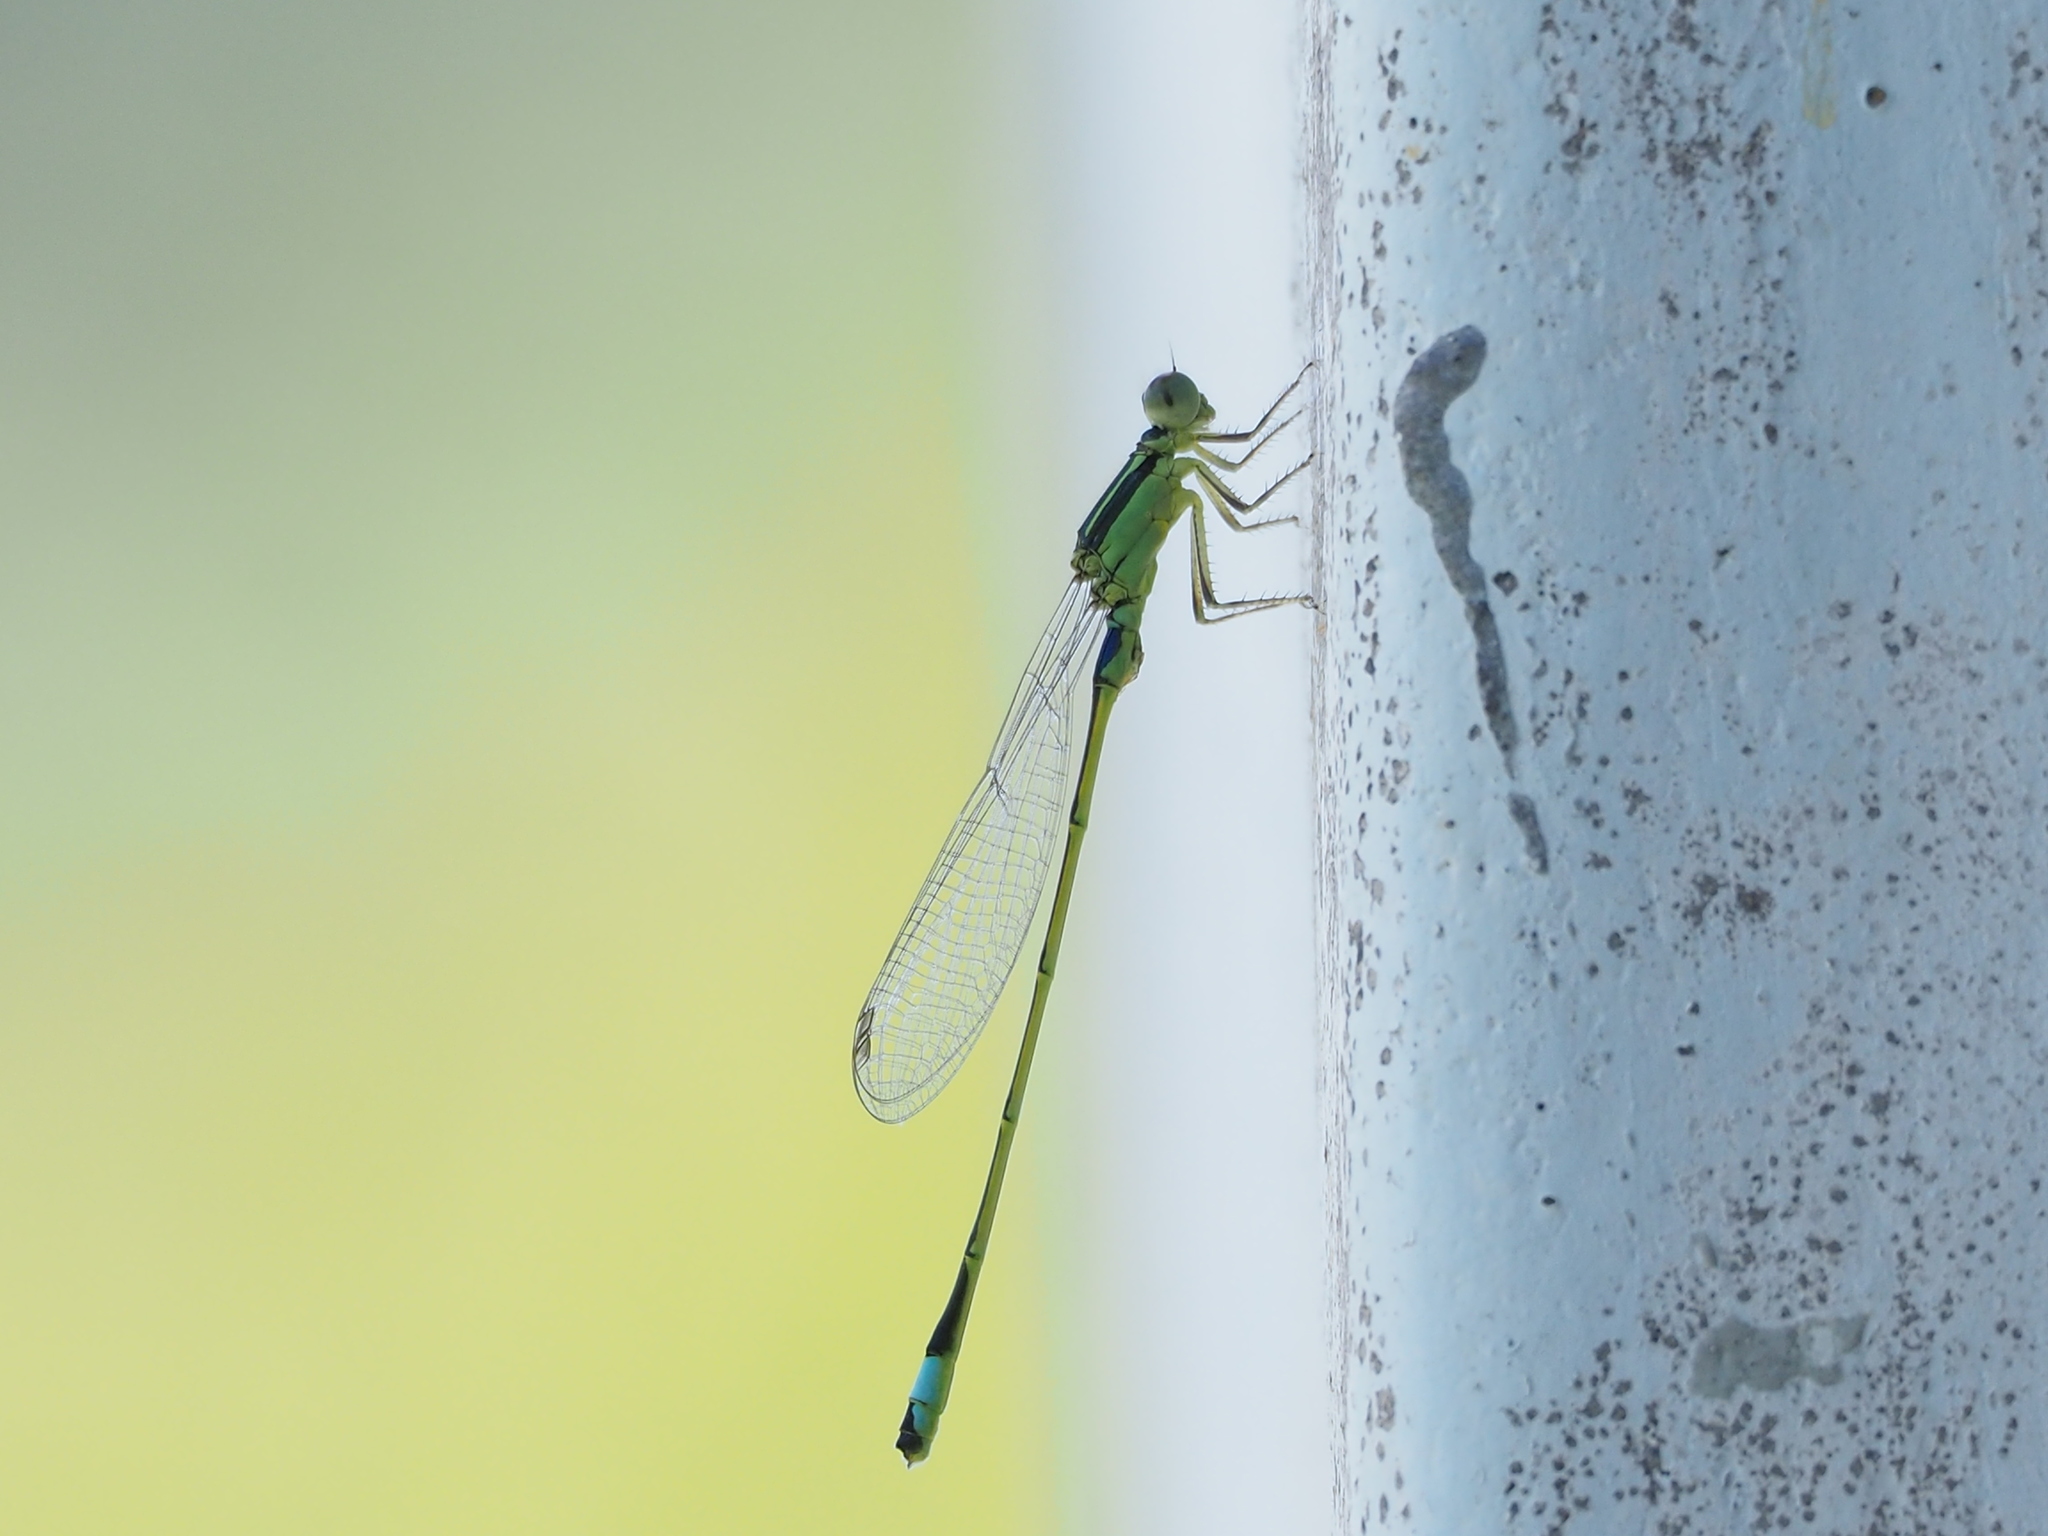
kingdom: Animalia
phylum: Arthropoda
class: Insecta
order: Odonata
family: Coenagrionidae
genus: Ischnura
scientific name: Ischnura senegalensis
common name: Tropical bluetail
